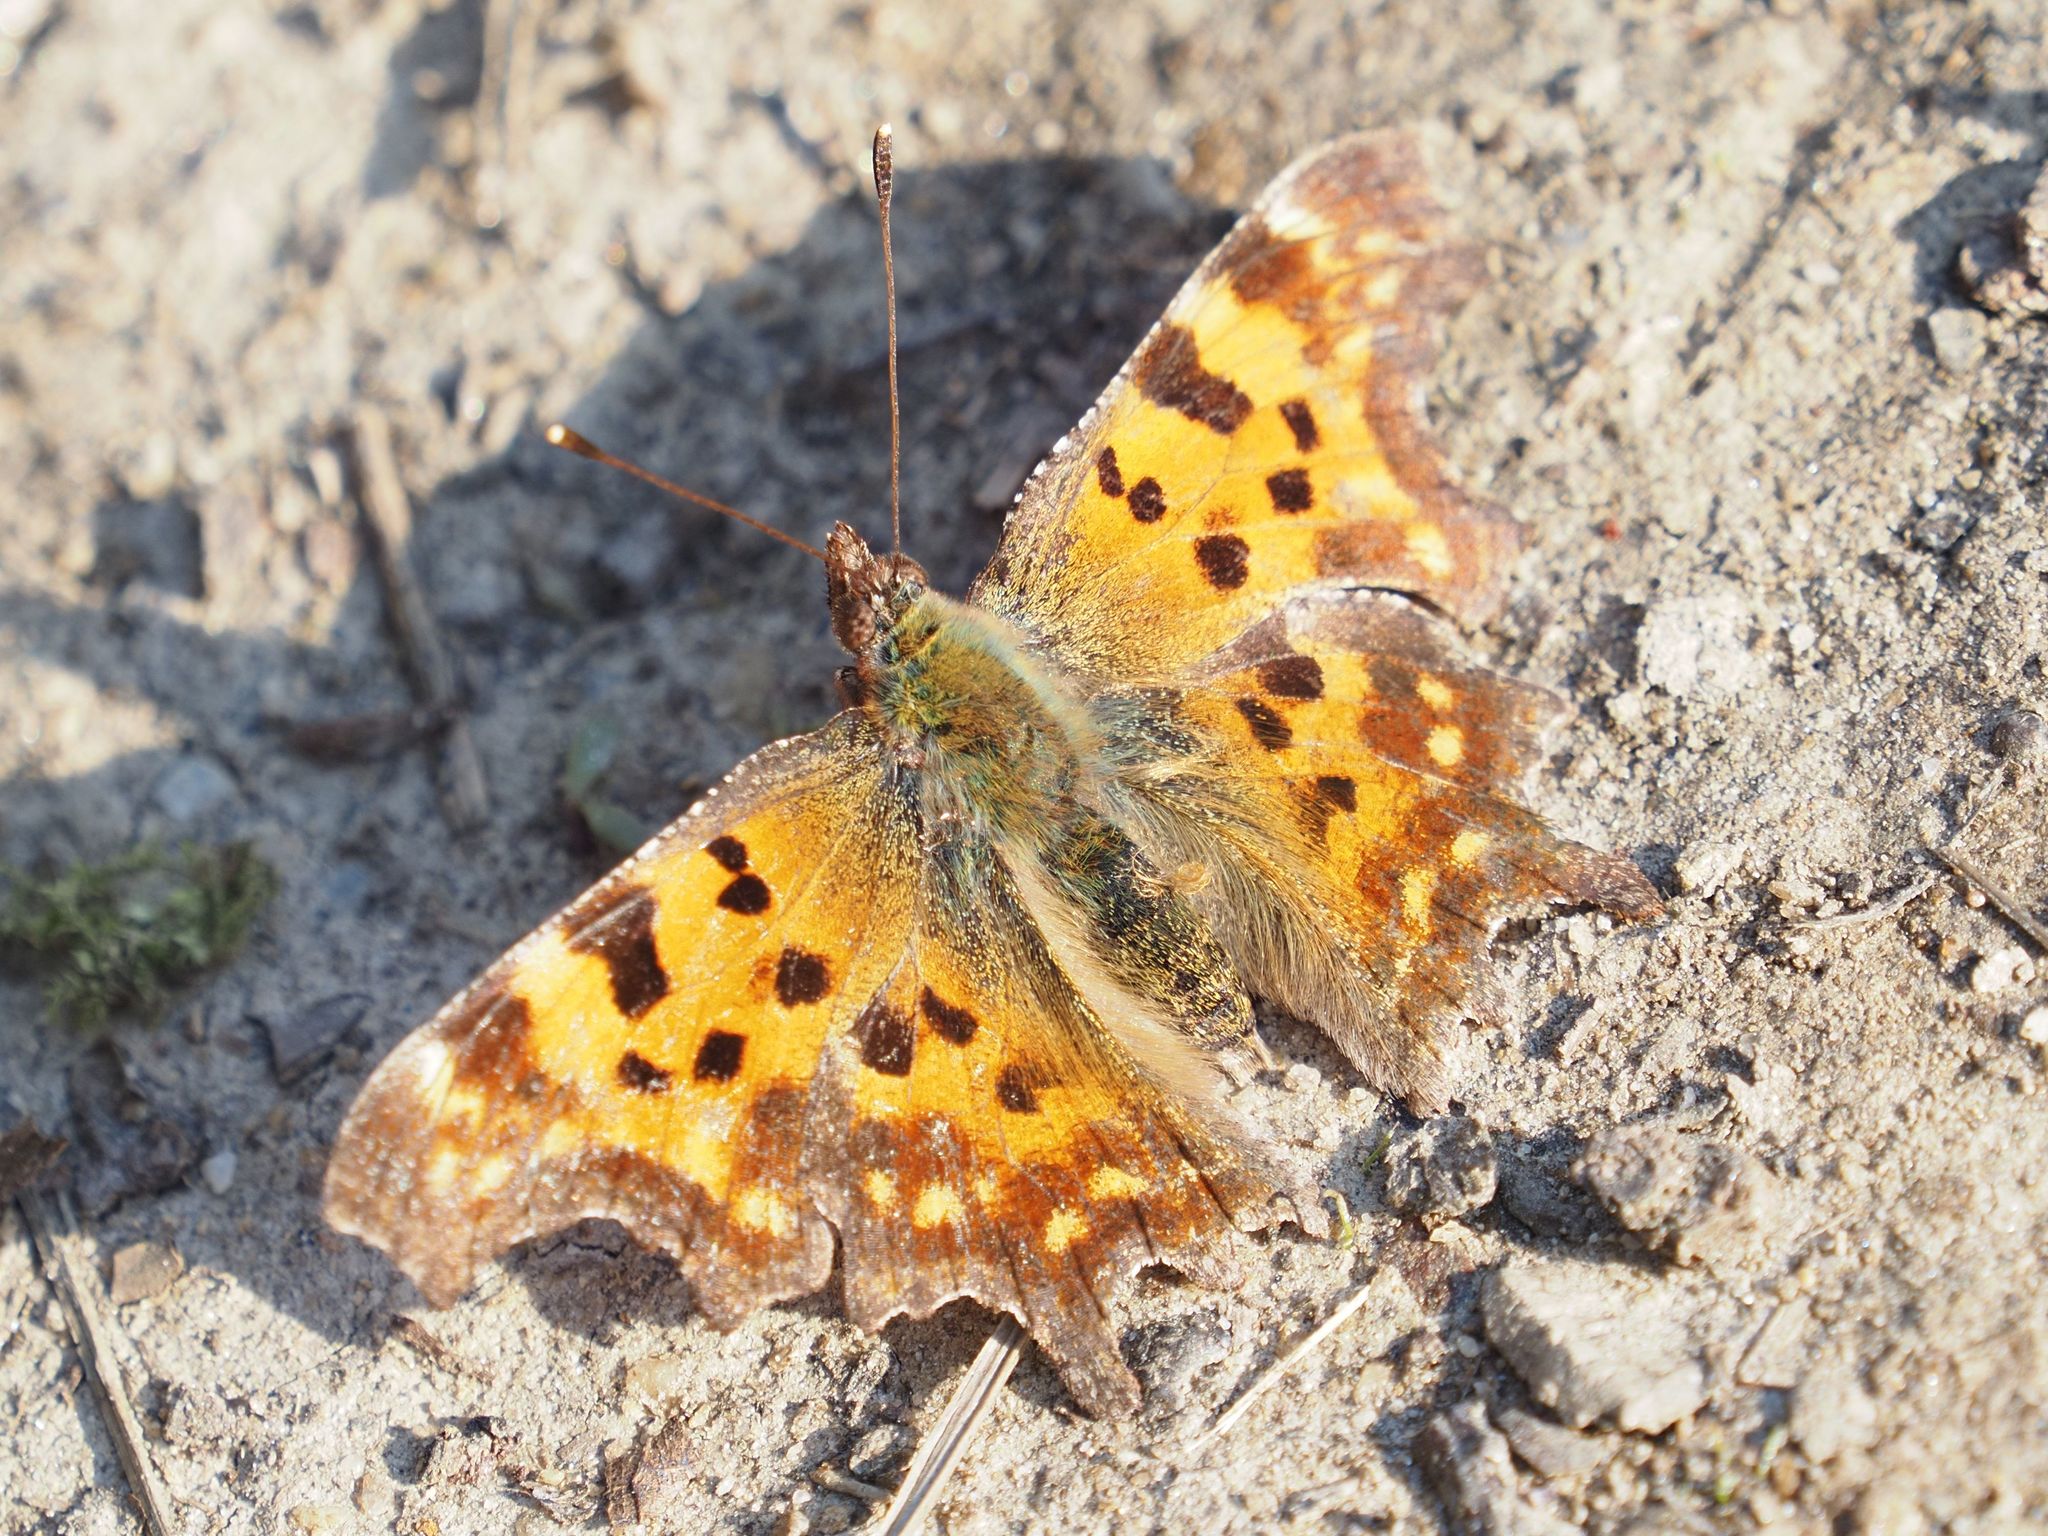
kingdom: Animalia
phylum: Arthropoda
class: Insecta
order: Lepidoptera
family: Nymphalidae
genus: Polygonia
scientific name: Polygonia c-album
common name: Comma
